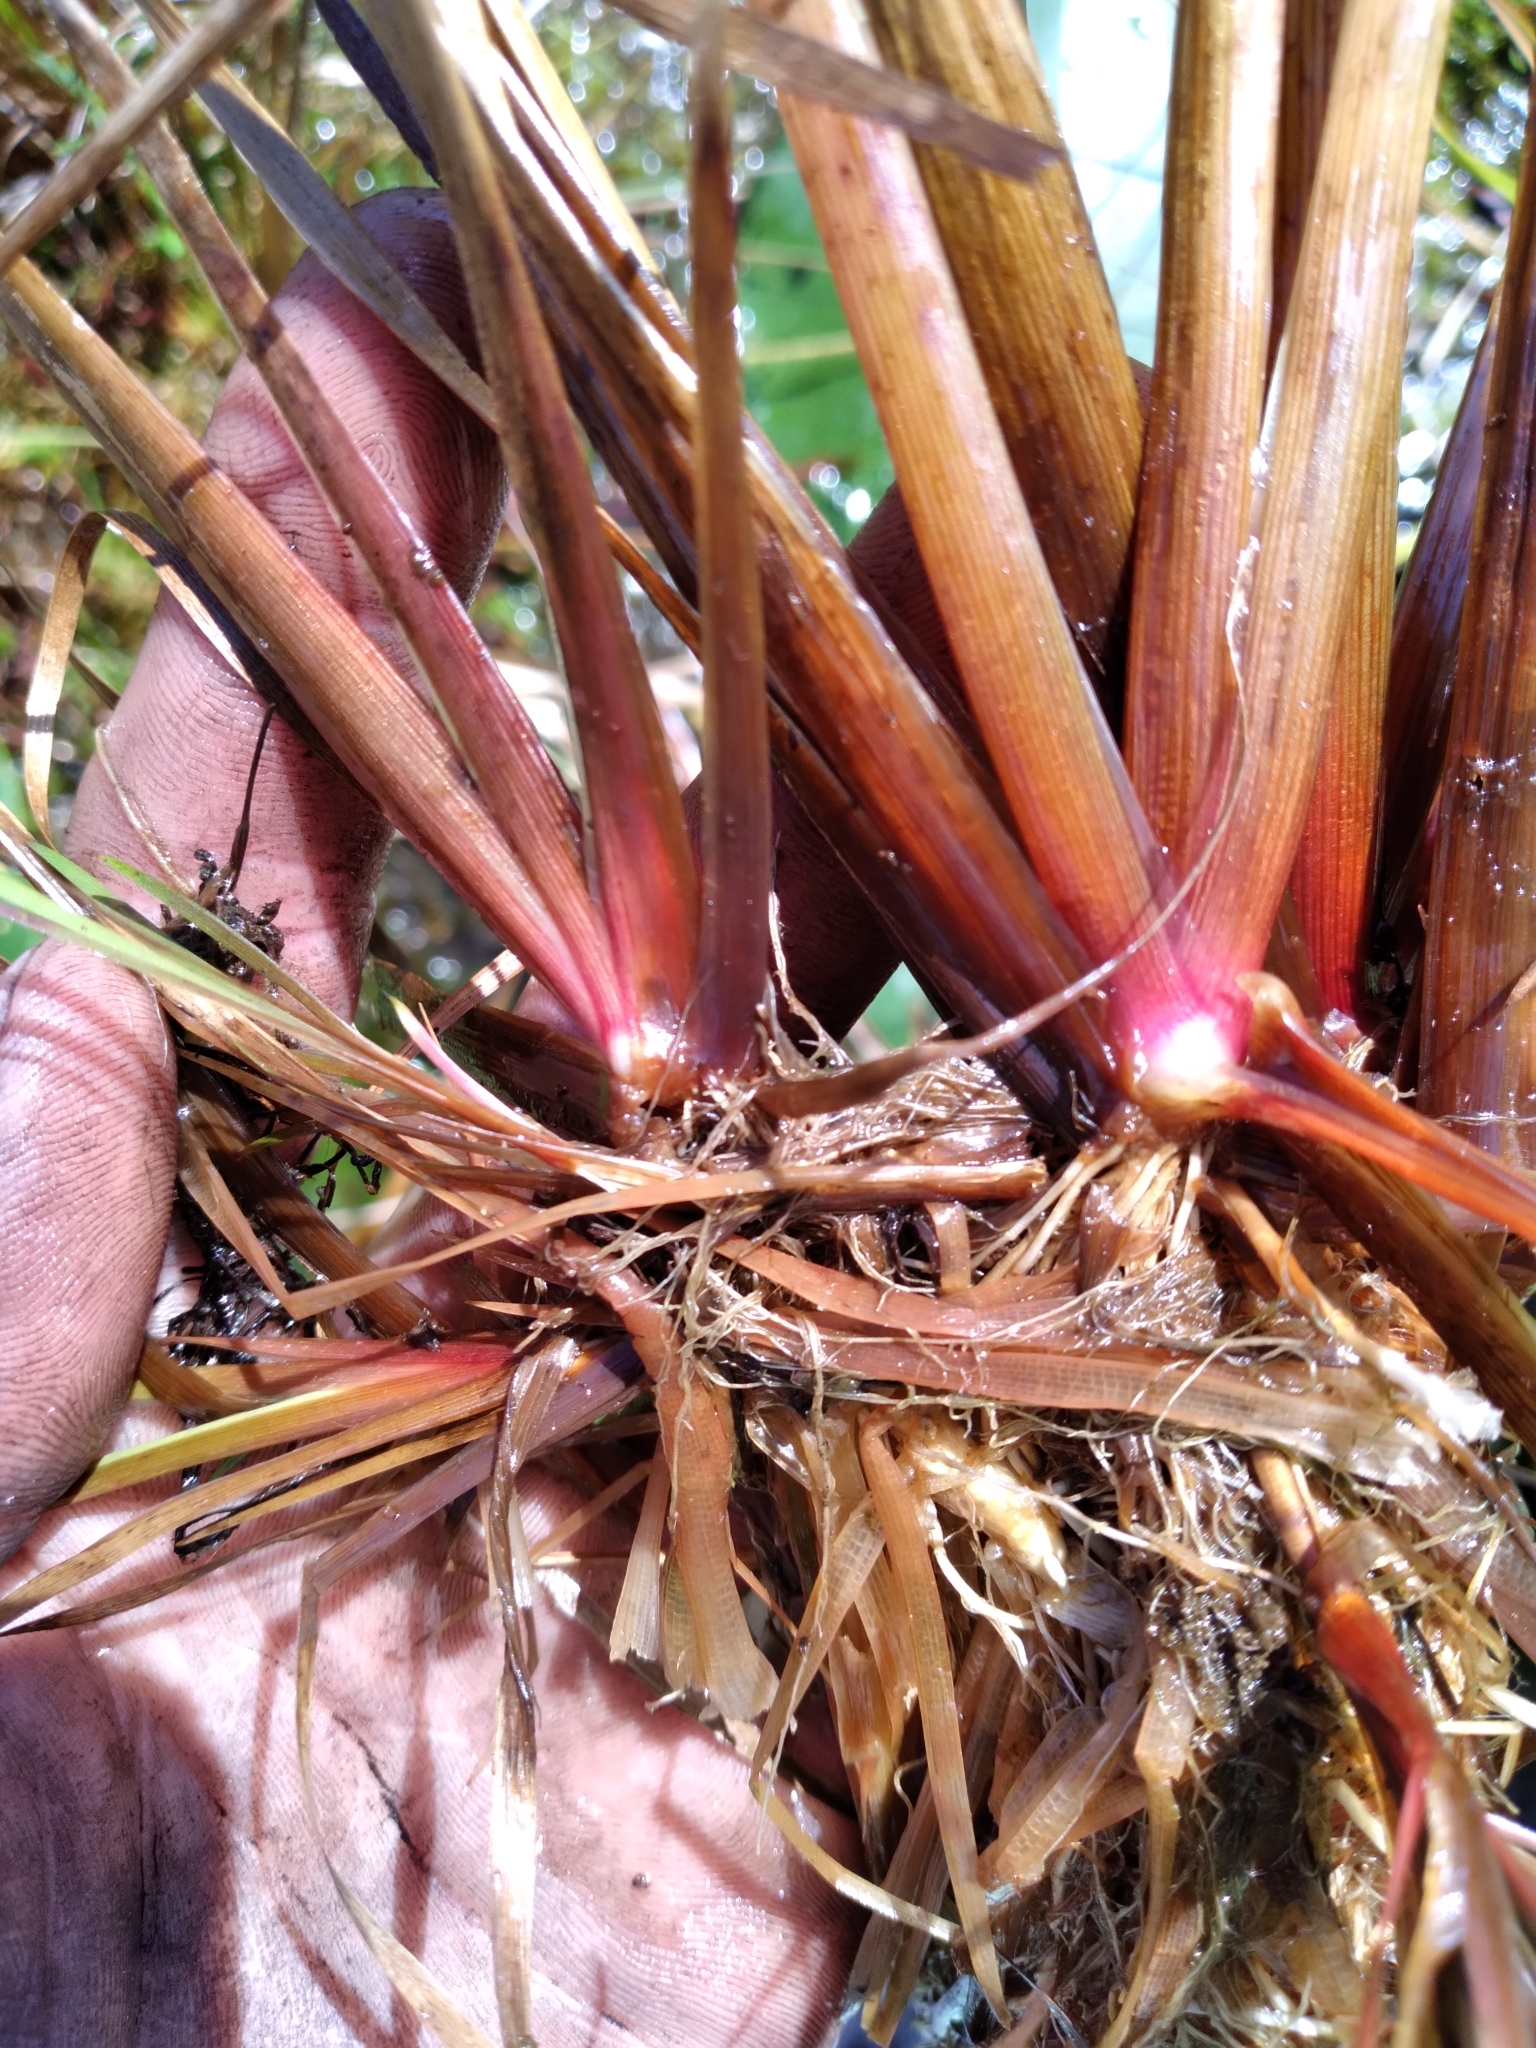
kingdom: Plantae
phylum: Tracheophyta
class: Liliopsida
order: Poales
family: Xyridaceae
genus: Xyris
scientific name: Xyris smalliana
